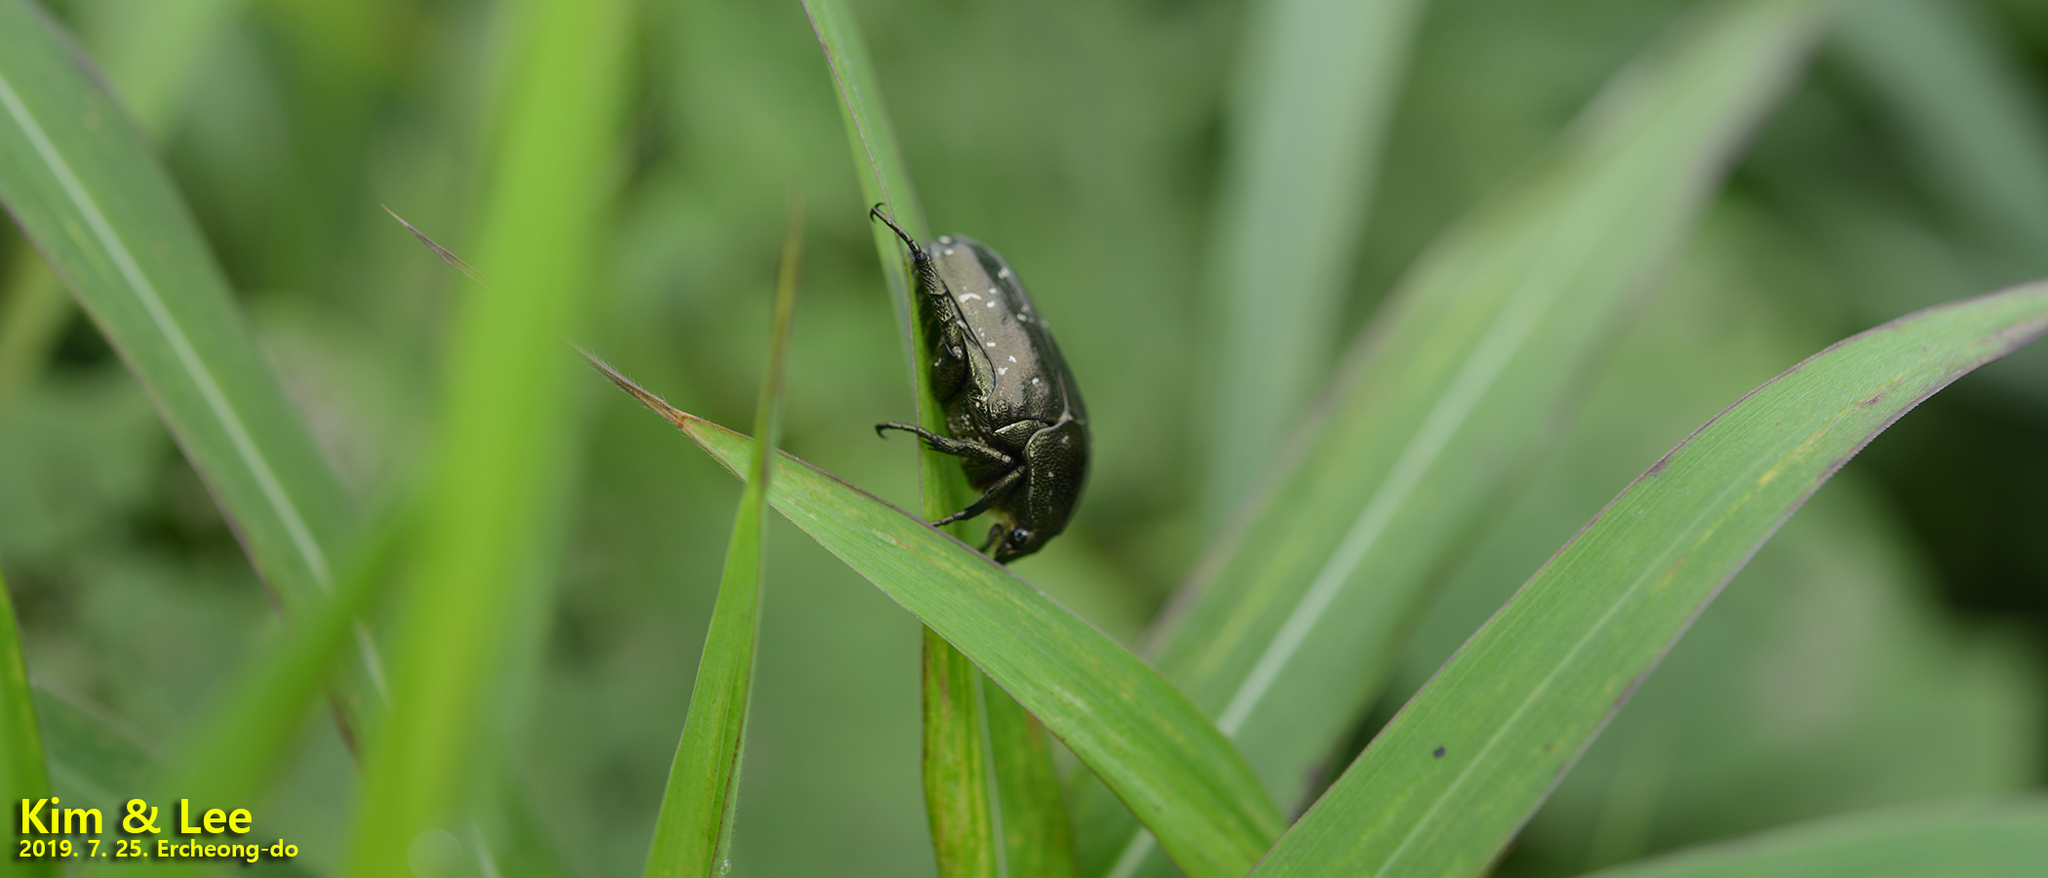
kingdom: Animalia
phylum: Arthropoda
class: Insecta
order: Coleoptera
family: Scarabaeidae
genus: Protaetia
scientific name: Protaetia orientalis
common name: Oriental flower beetle
